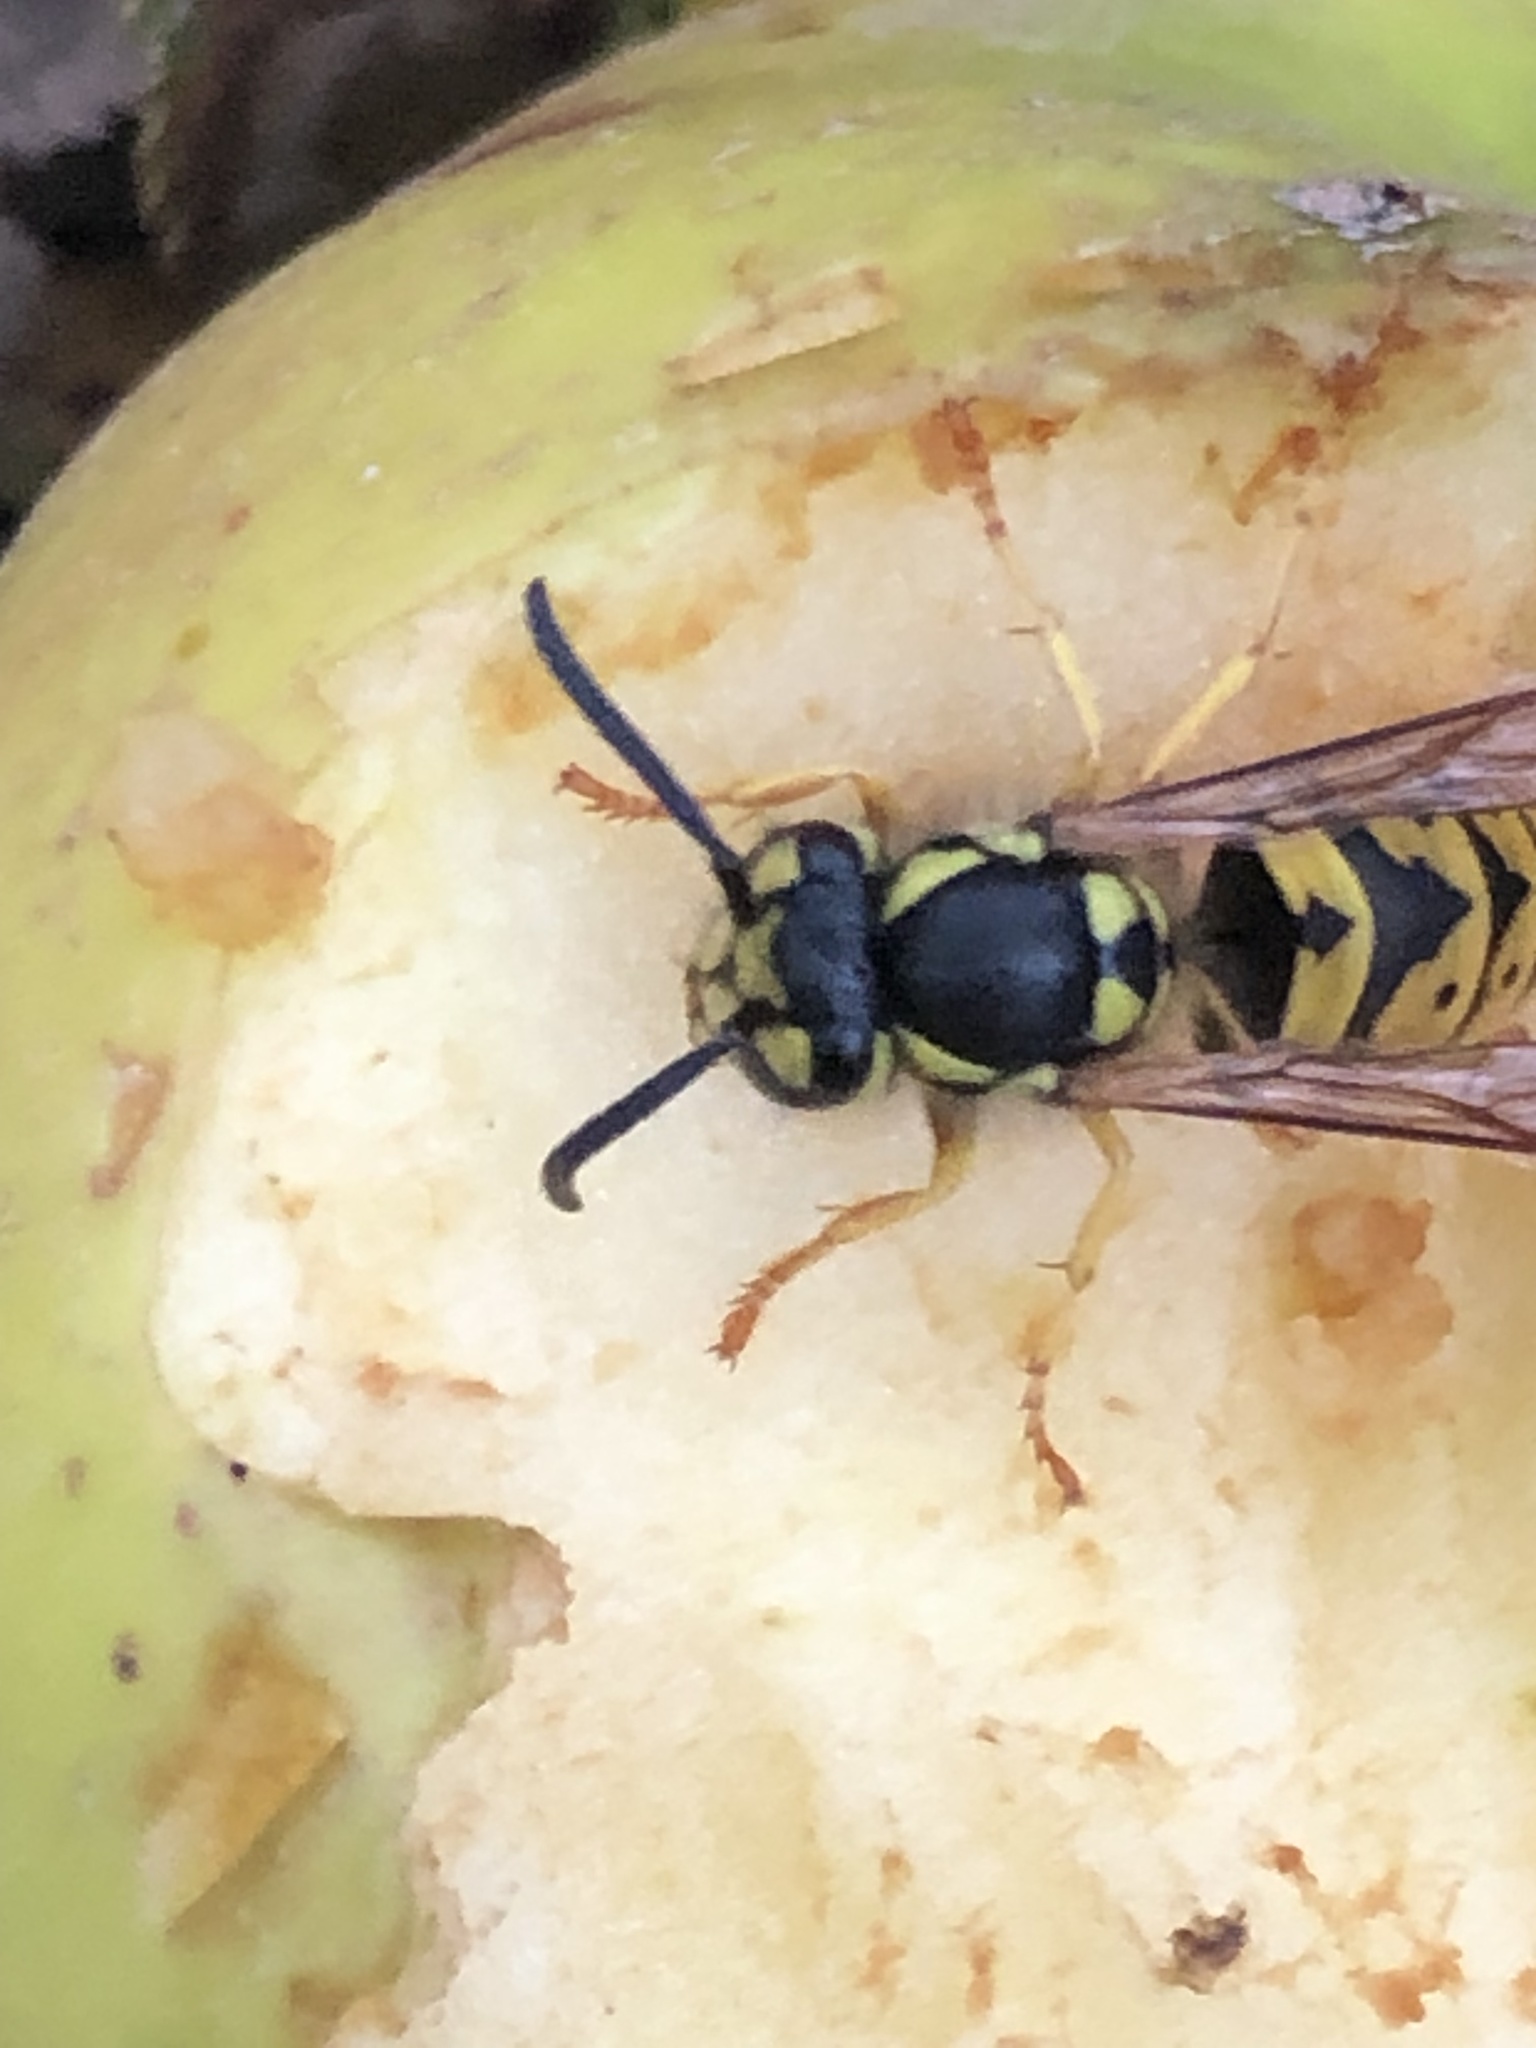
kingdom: Animalia
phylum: Arthropoda
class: Insecta
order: Hymenoptera
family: Vespidae
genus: Vespula
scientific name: Vespula germanica
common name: German wasp
